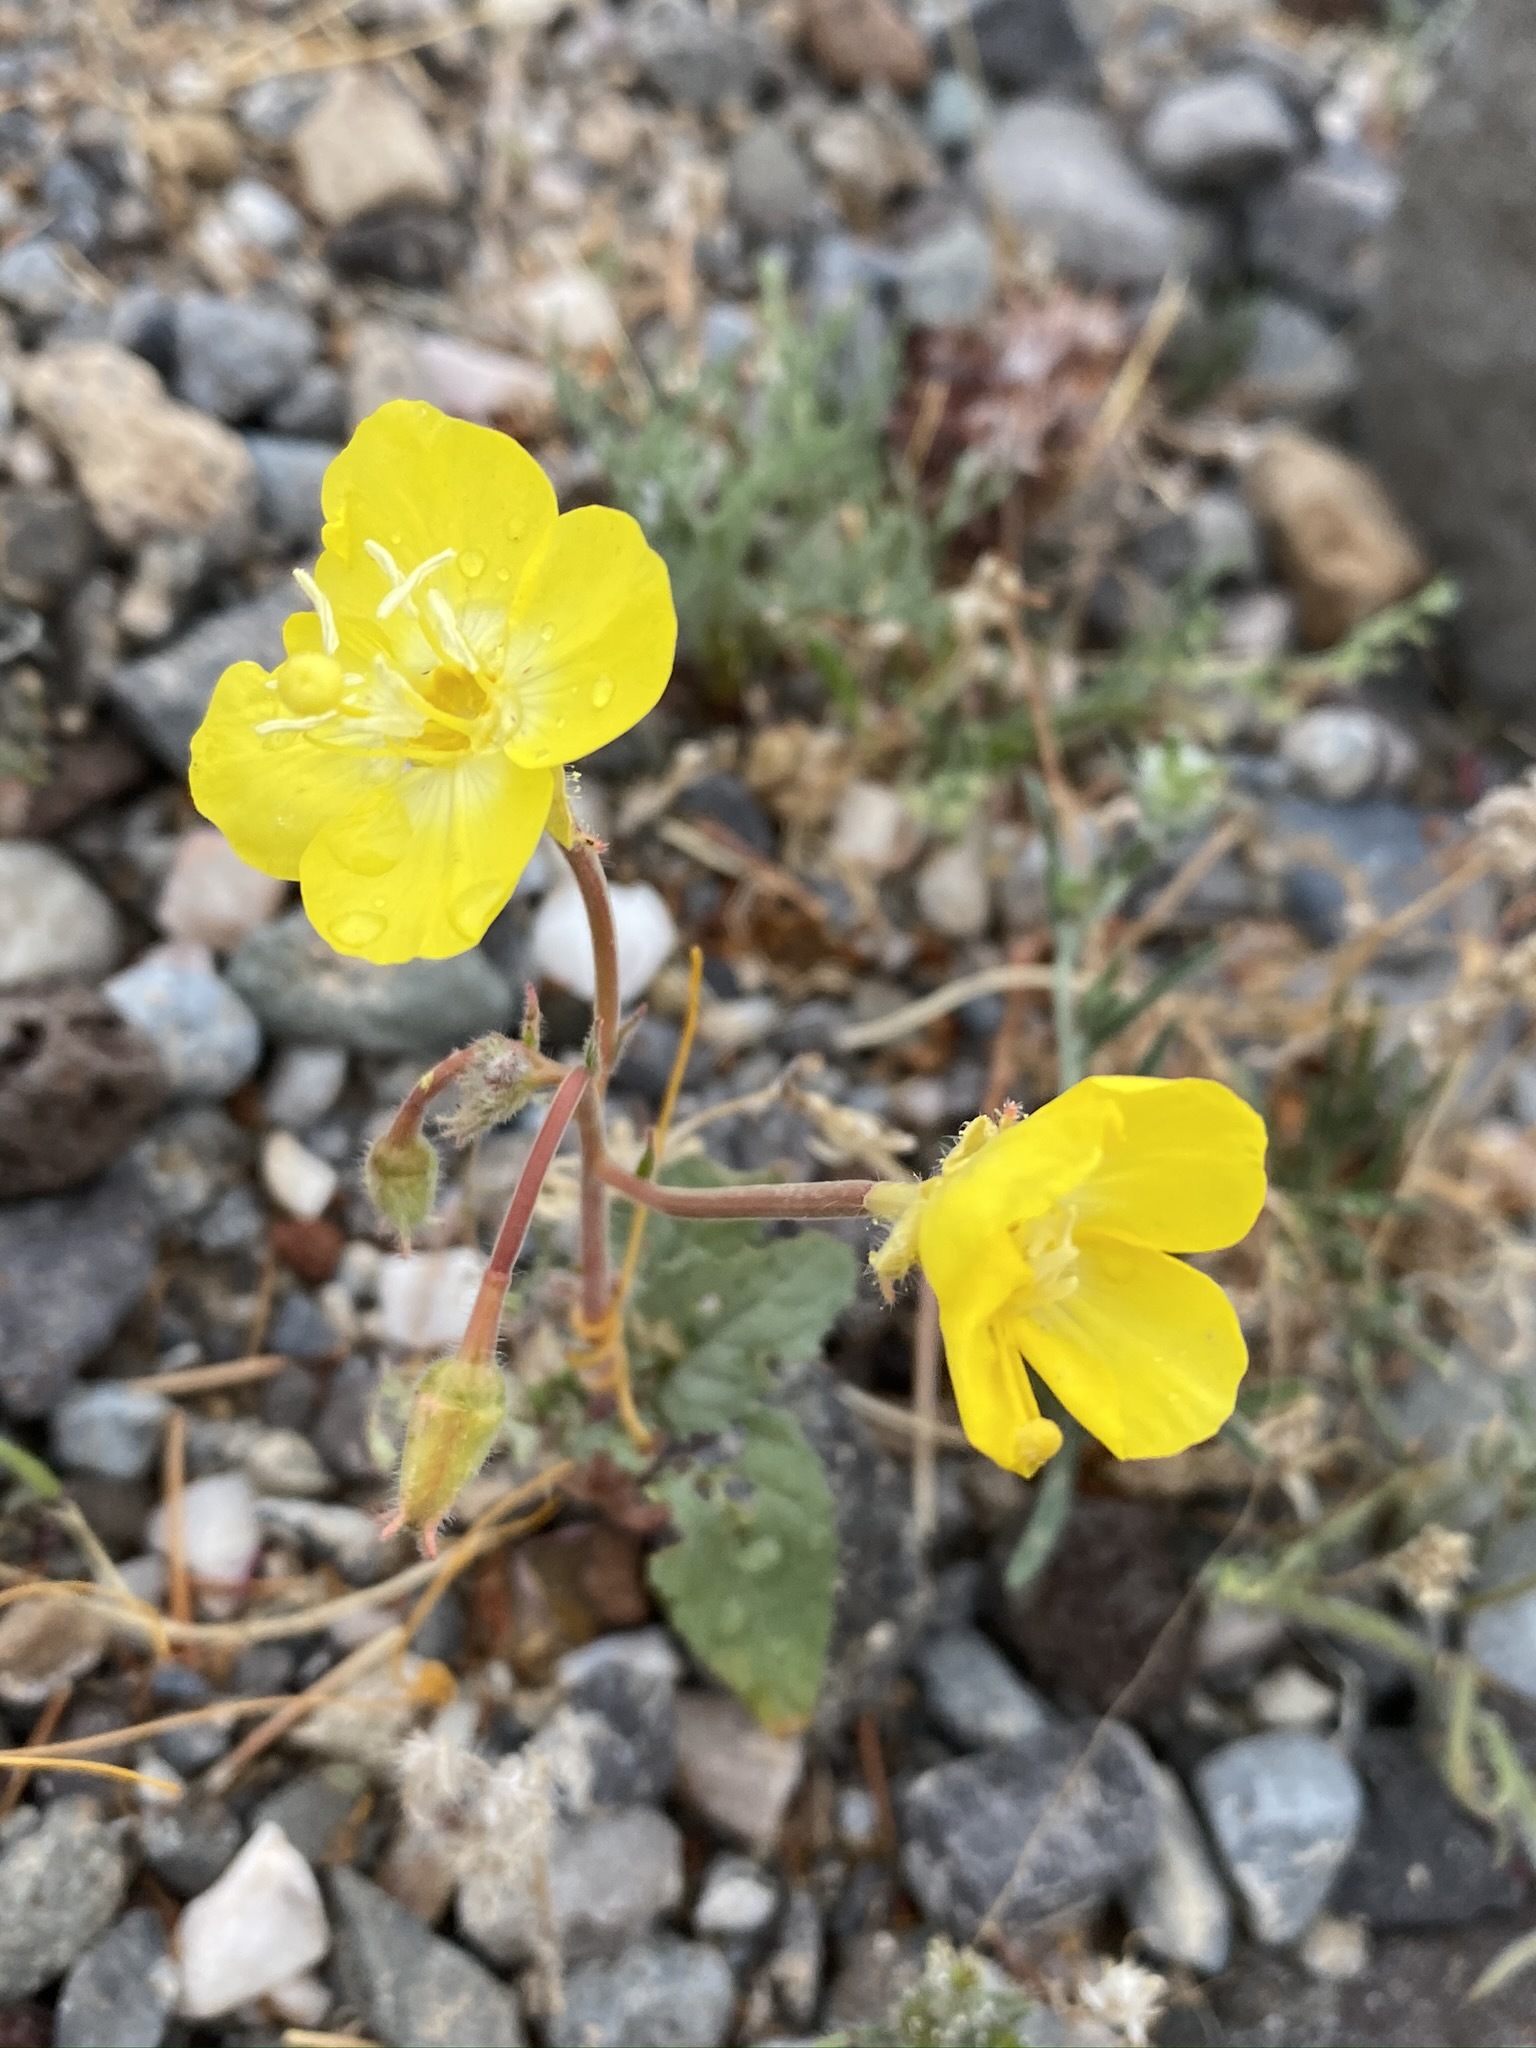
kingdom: Plantae
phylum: Tracheophyta
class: Magnoliopsida
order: Myrtales
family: Onagraceae
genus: Chylismia
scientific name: Chylismia brevipes
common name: Yellow cups
